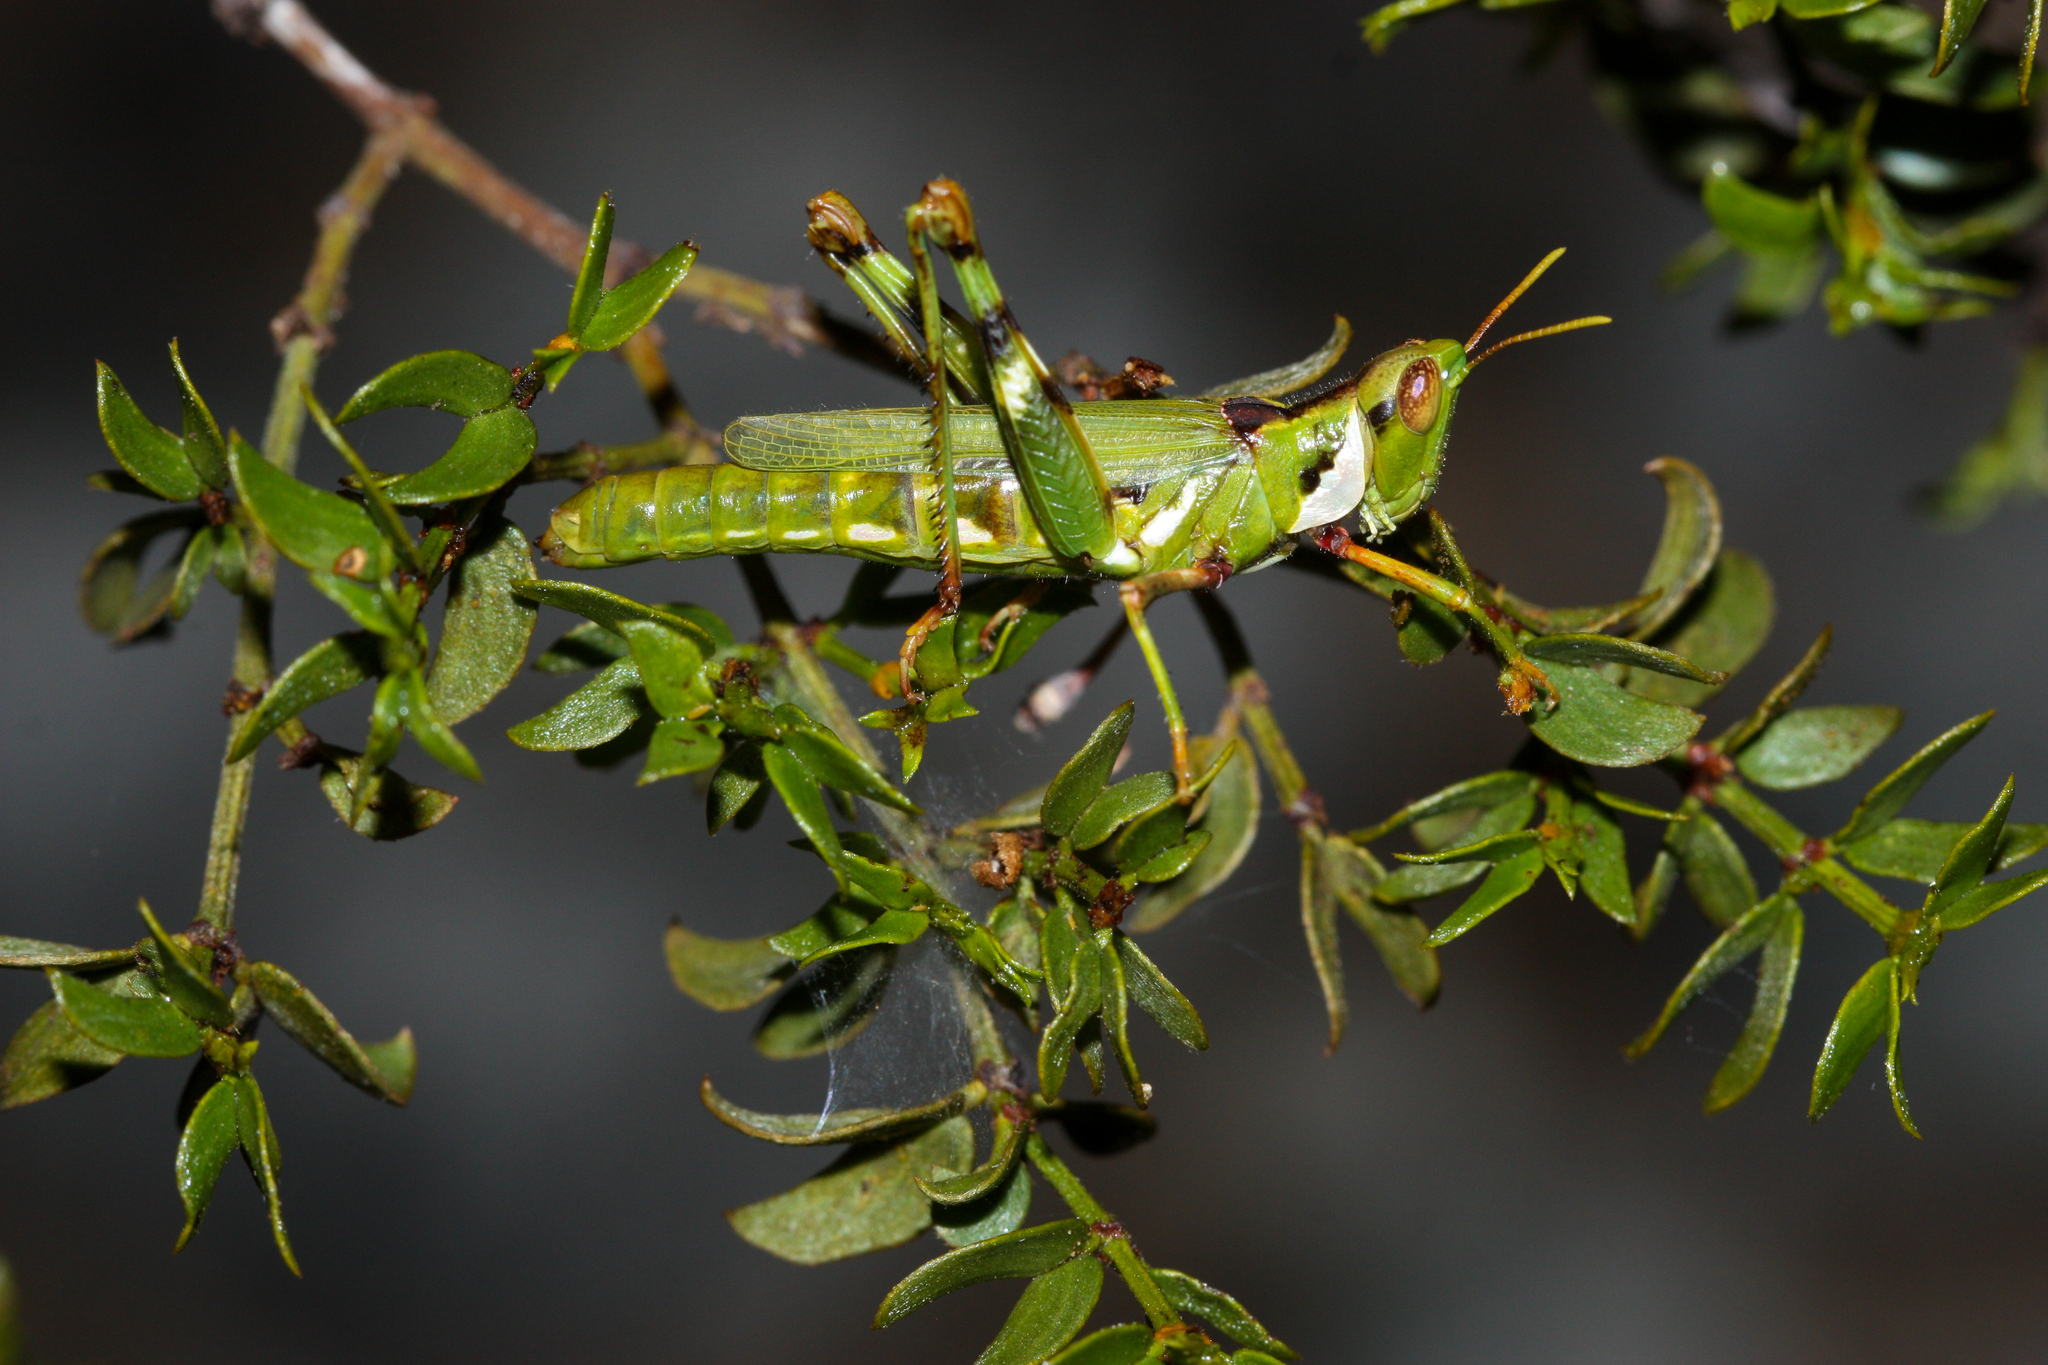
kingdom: Animalia
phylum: Arthropoda
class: Insecta
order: Orthoptera
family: Acrididae
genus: Bootettix
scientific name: Bootettix argentatus
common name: Creosote bush grasshopper
